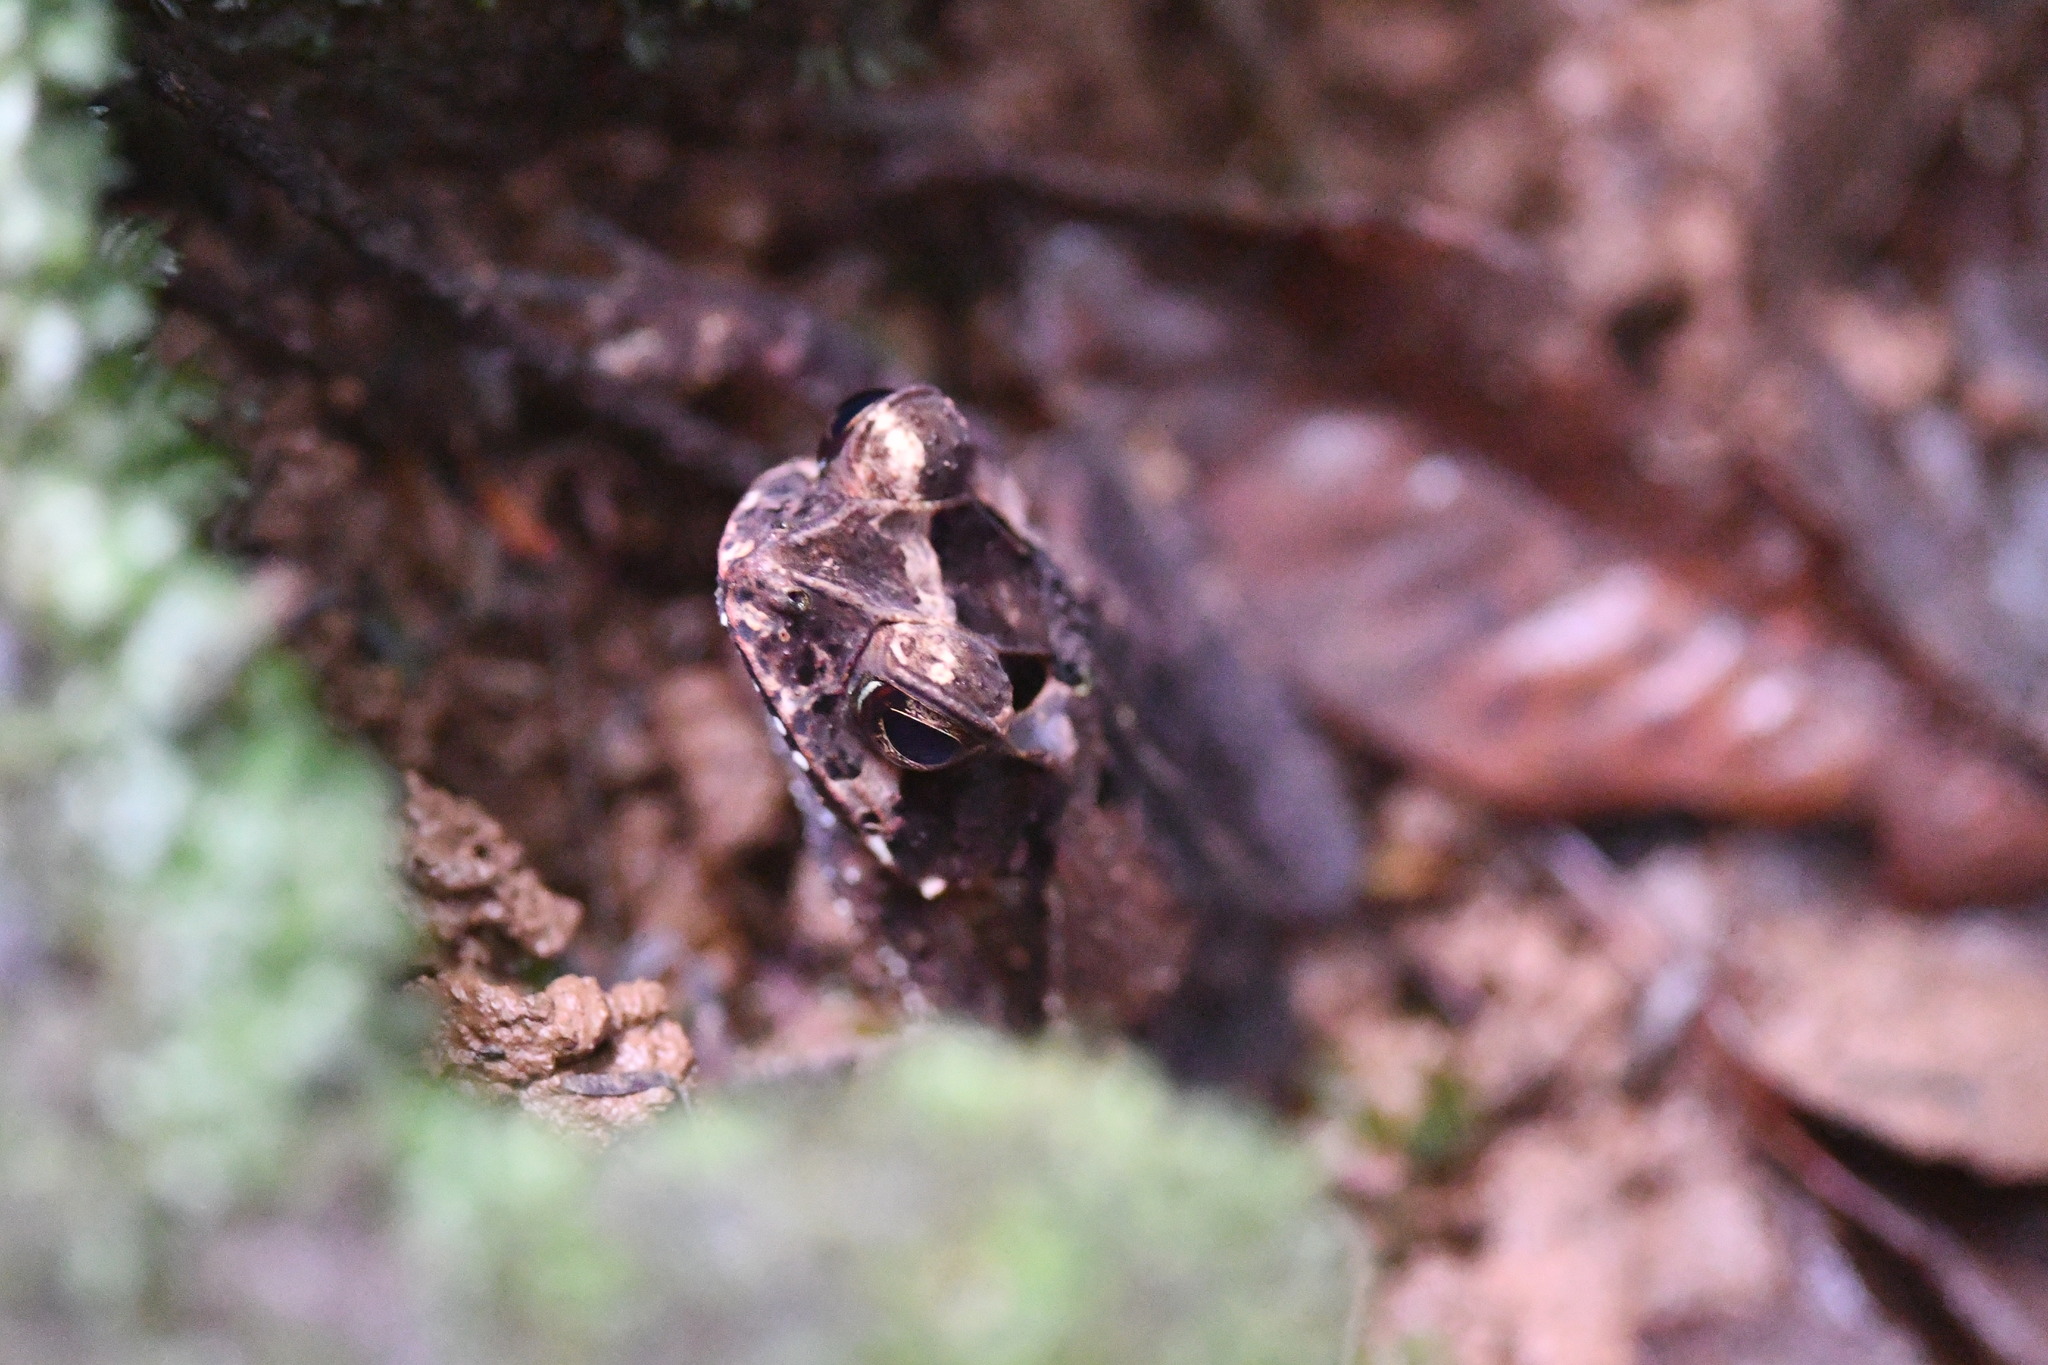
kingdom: Animalia
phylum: Chordata
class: Amphibia
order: Anura
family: Bufonidae
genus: Incilius
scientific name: Incilius melanochlorus
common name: Dark green toad
